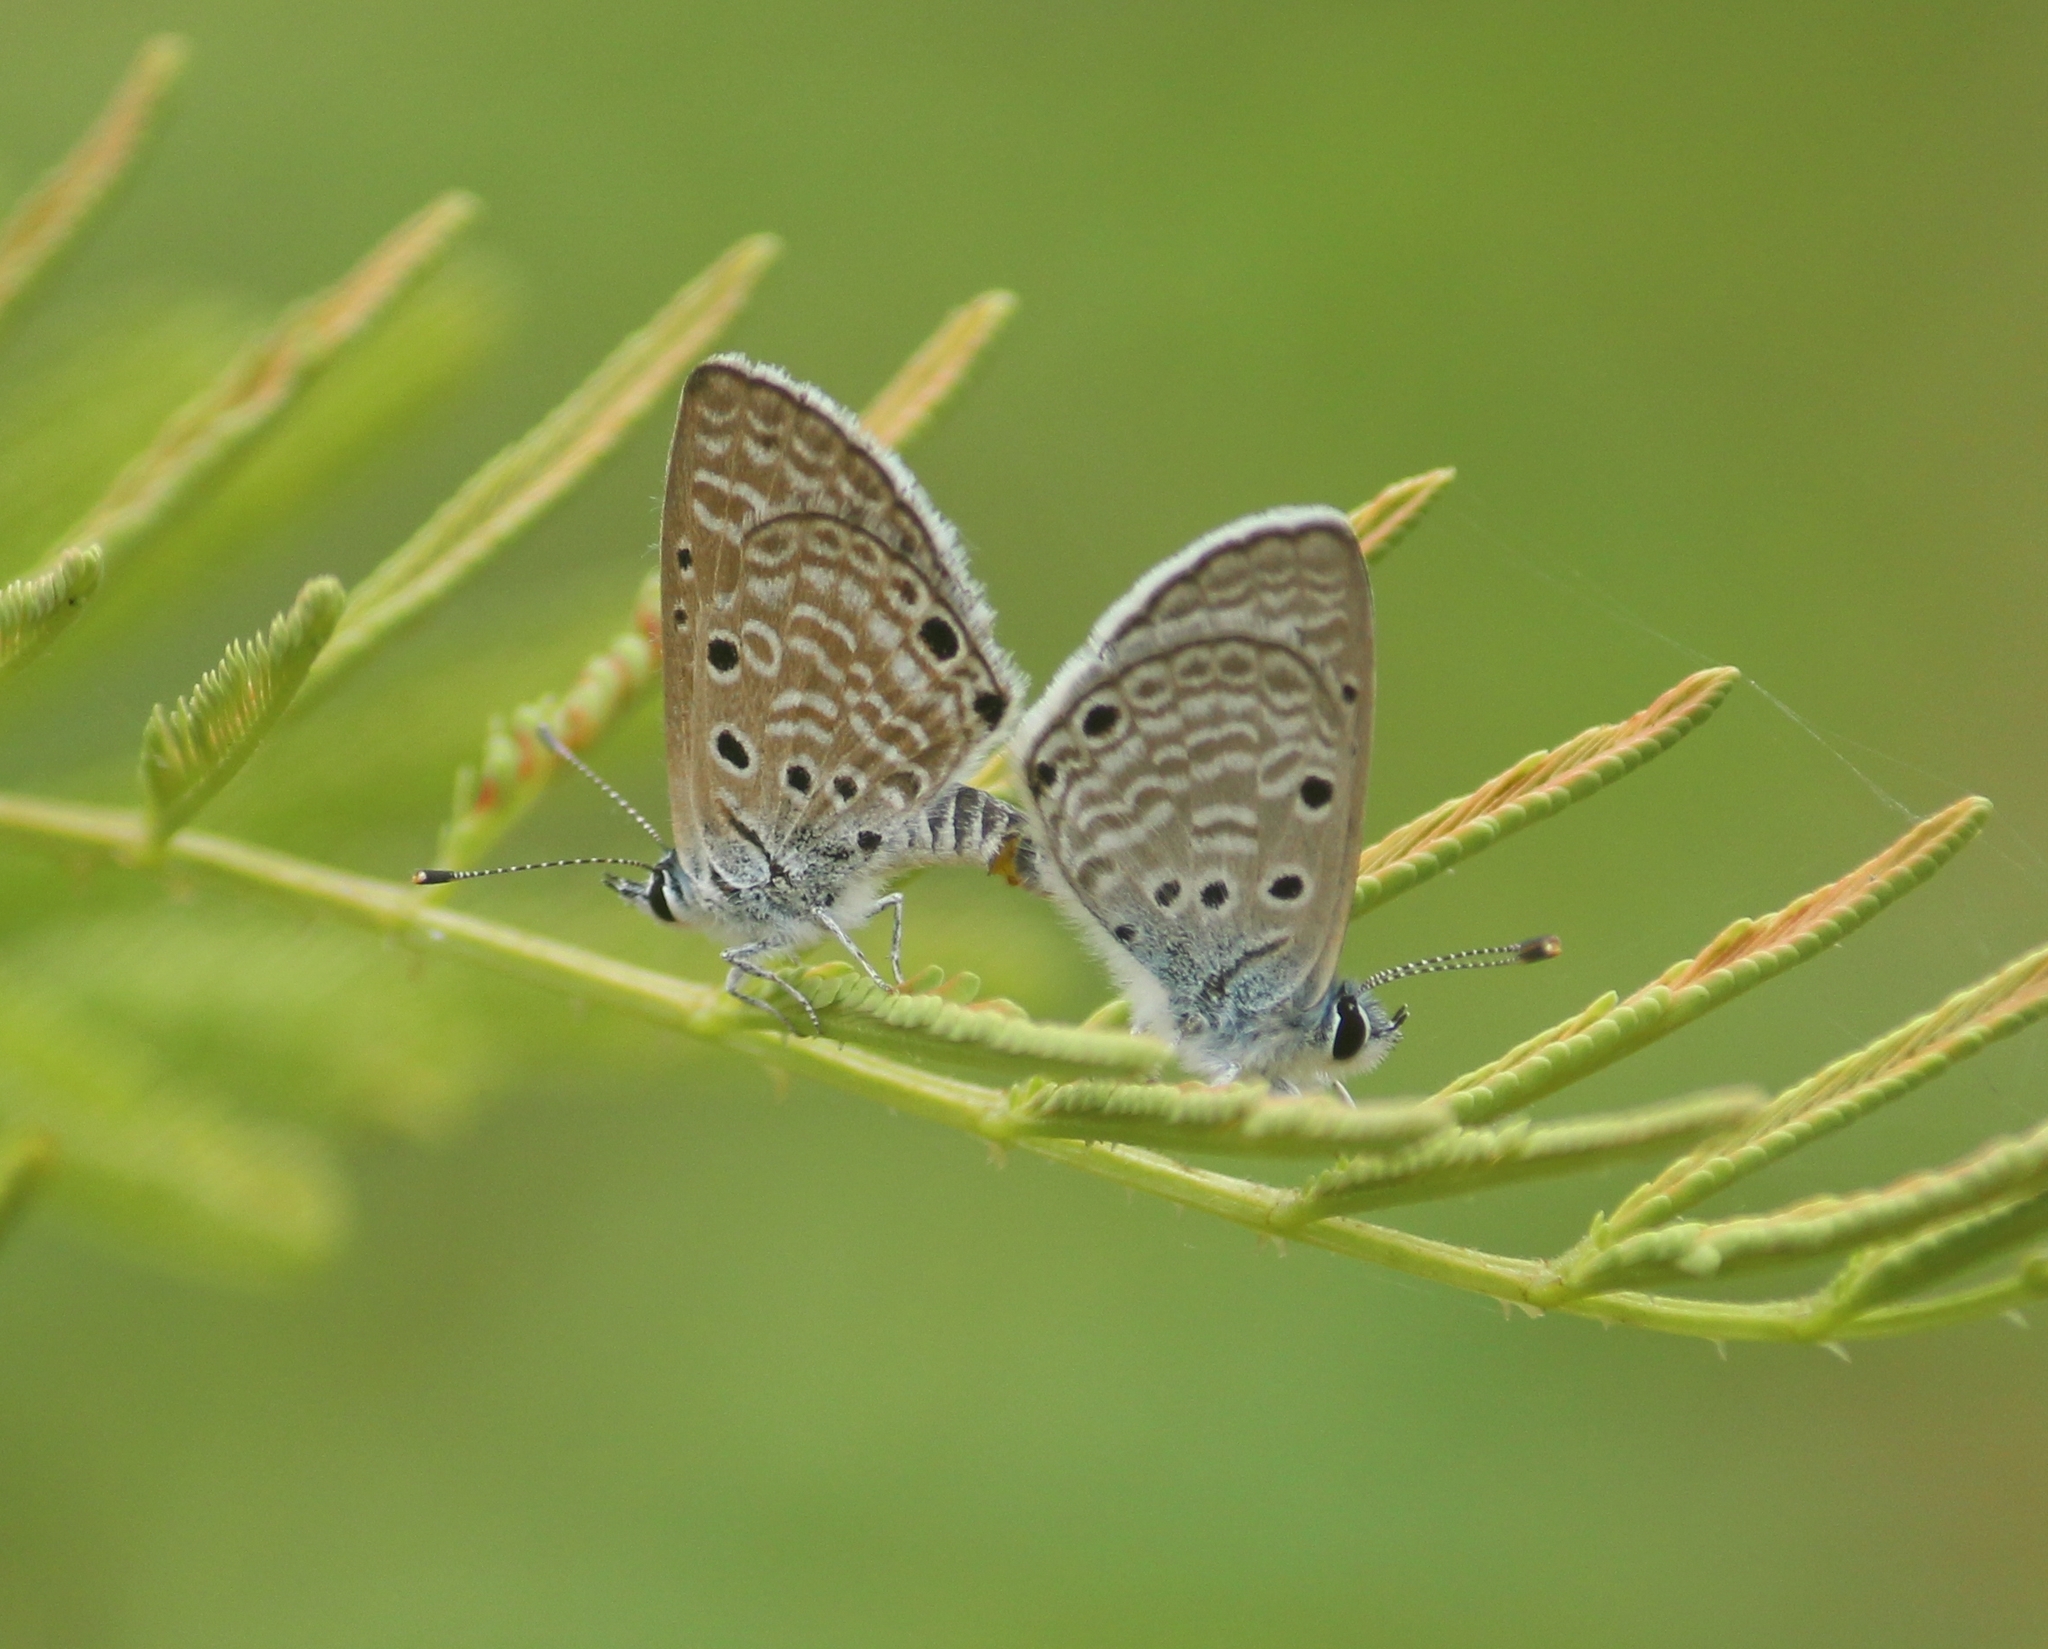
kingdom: Animalia
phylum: Arthropoda
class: Insecta
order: Lepidoptera
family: Lycaenidae
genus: Azanus
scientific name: Azanus ubaldus
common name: Desert babul blue
